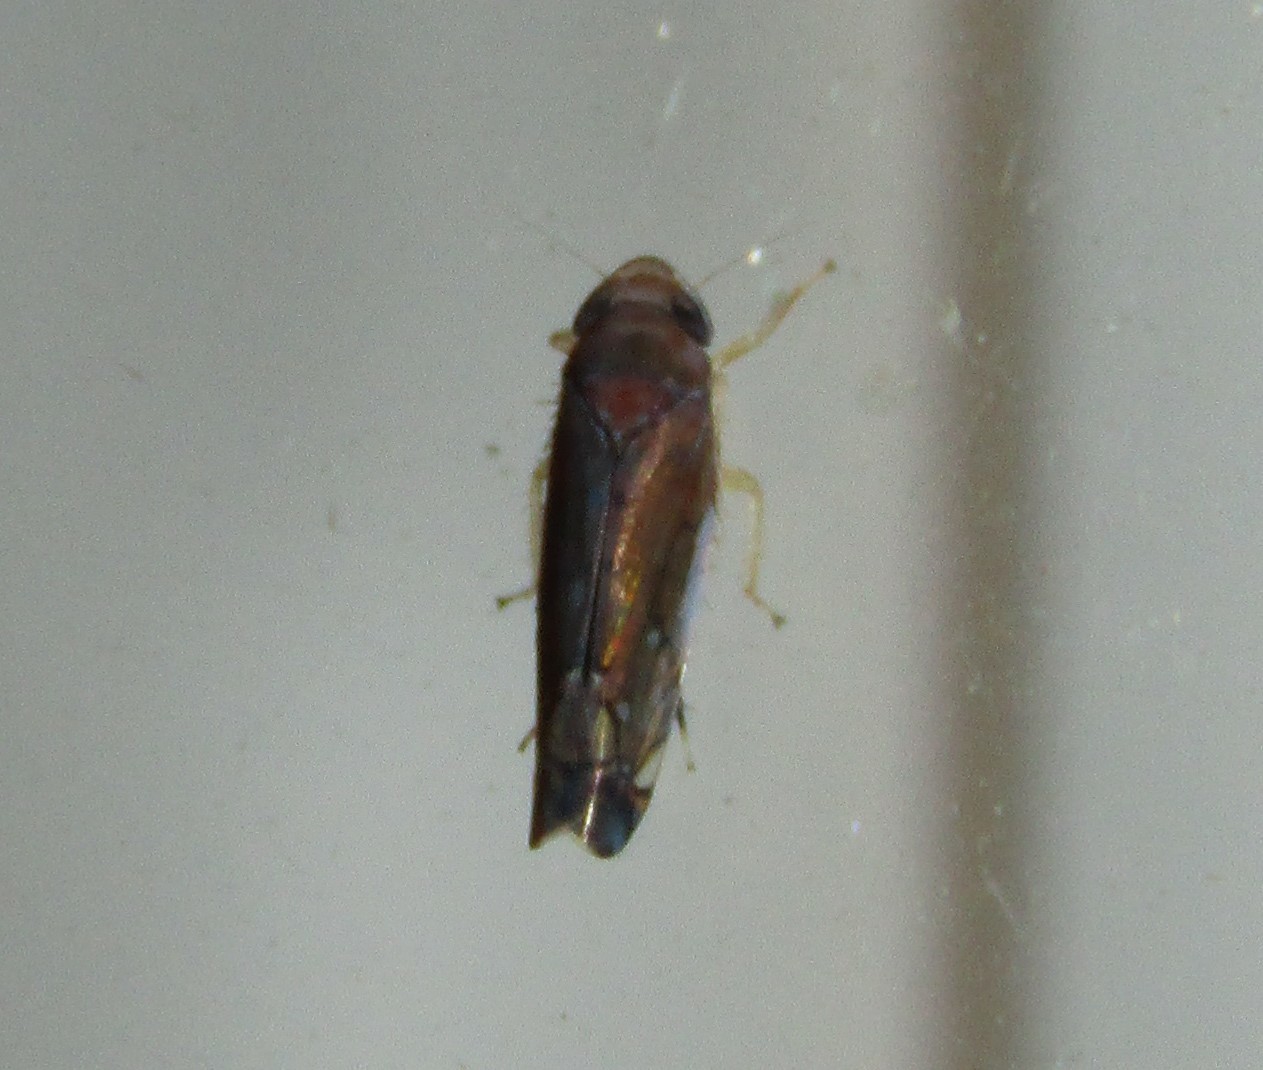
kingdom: Animalia
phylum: Arthropoda
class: Insecta
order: Hemiptera
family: Cicadellidae
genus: Scaphoideus
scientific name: Scaphoideus atlantus
